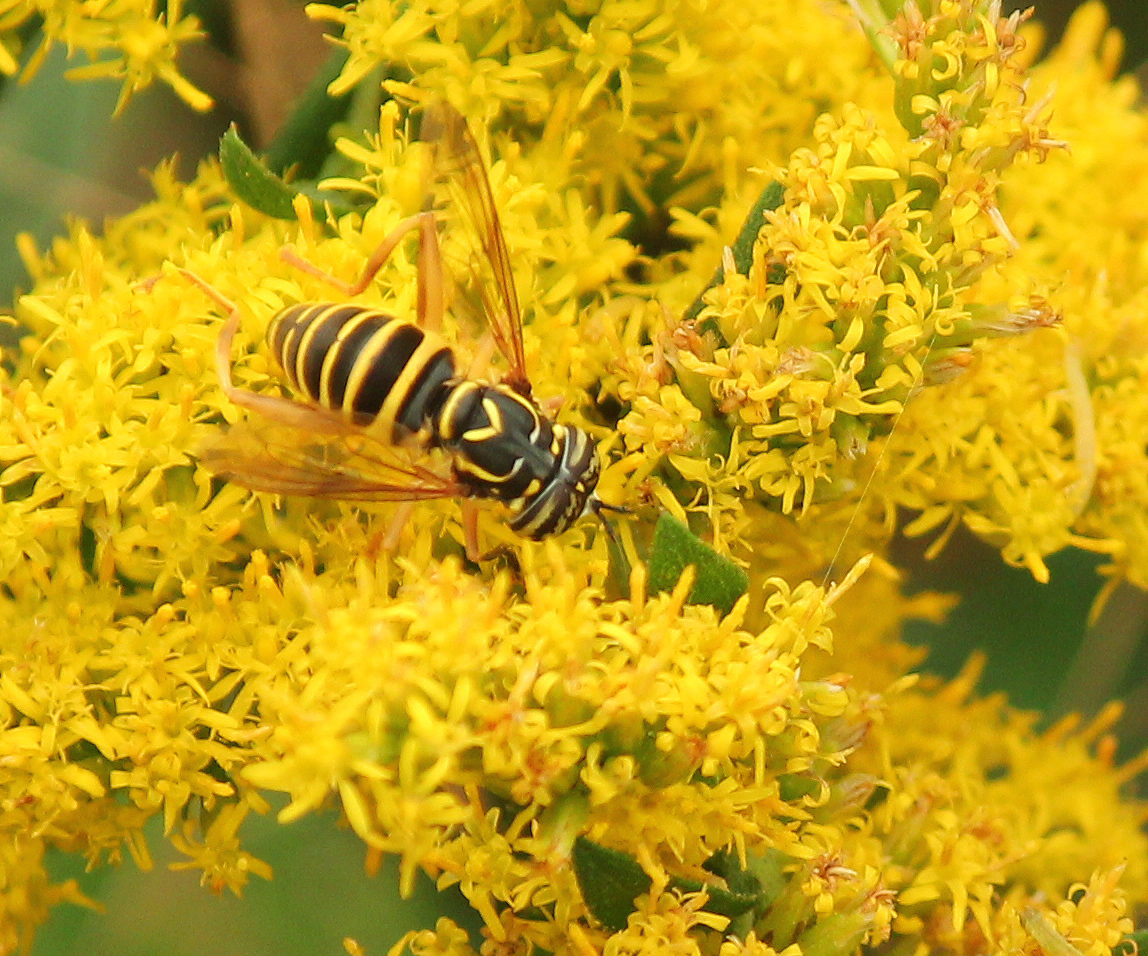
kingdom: Animalia
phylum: Arthropoda
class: Insecta
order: Diptera
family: Syrphidae
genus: Spilomyia
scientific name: Spilomyia longicornis
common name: Eastern hornet fly
